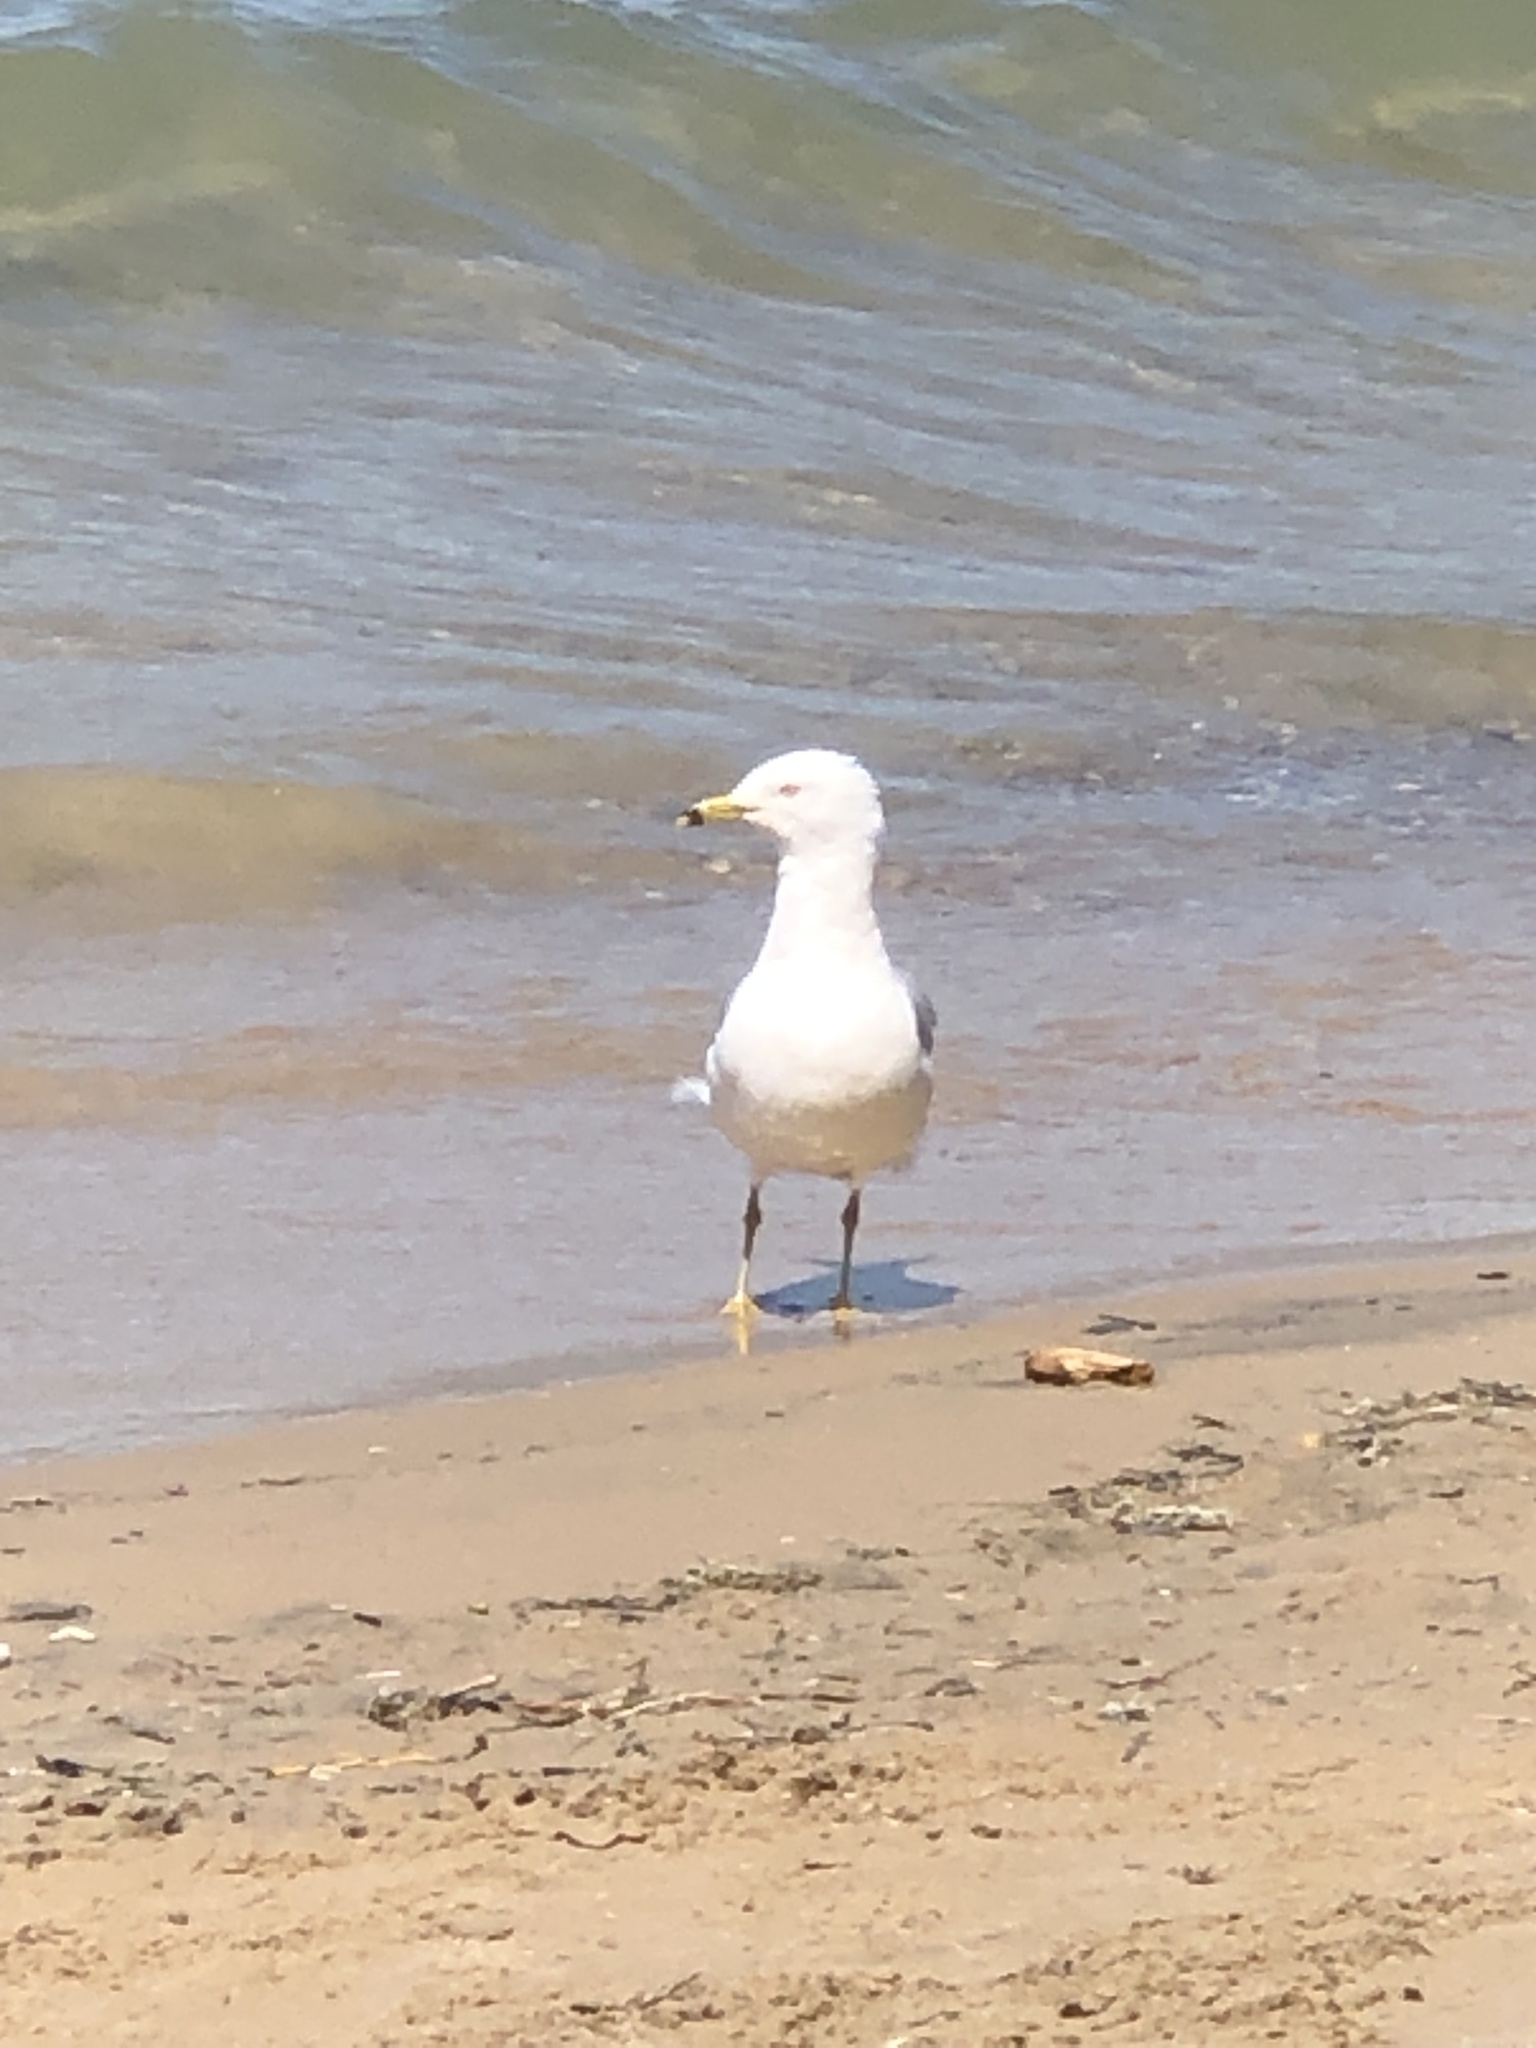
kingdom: Animalia
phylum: Chordata
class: Aves
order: Charadriiformes
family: Laridae
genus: Larus
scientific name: Larus delawarensis
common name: Ring-billed gull
